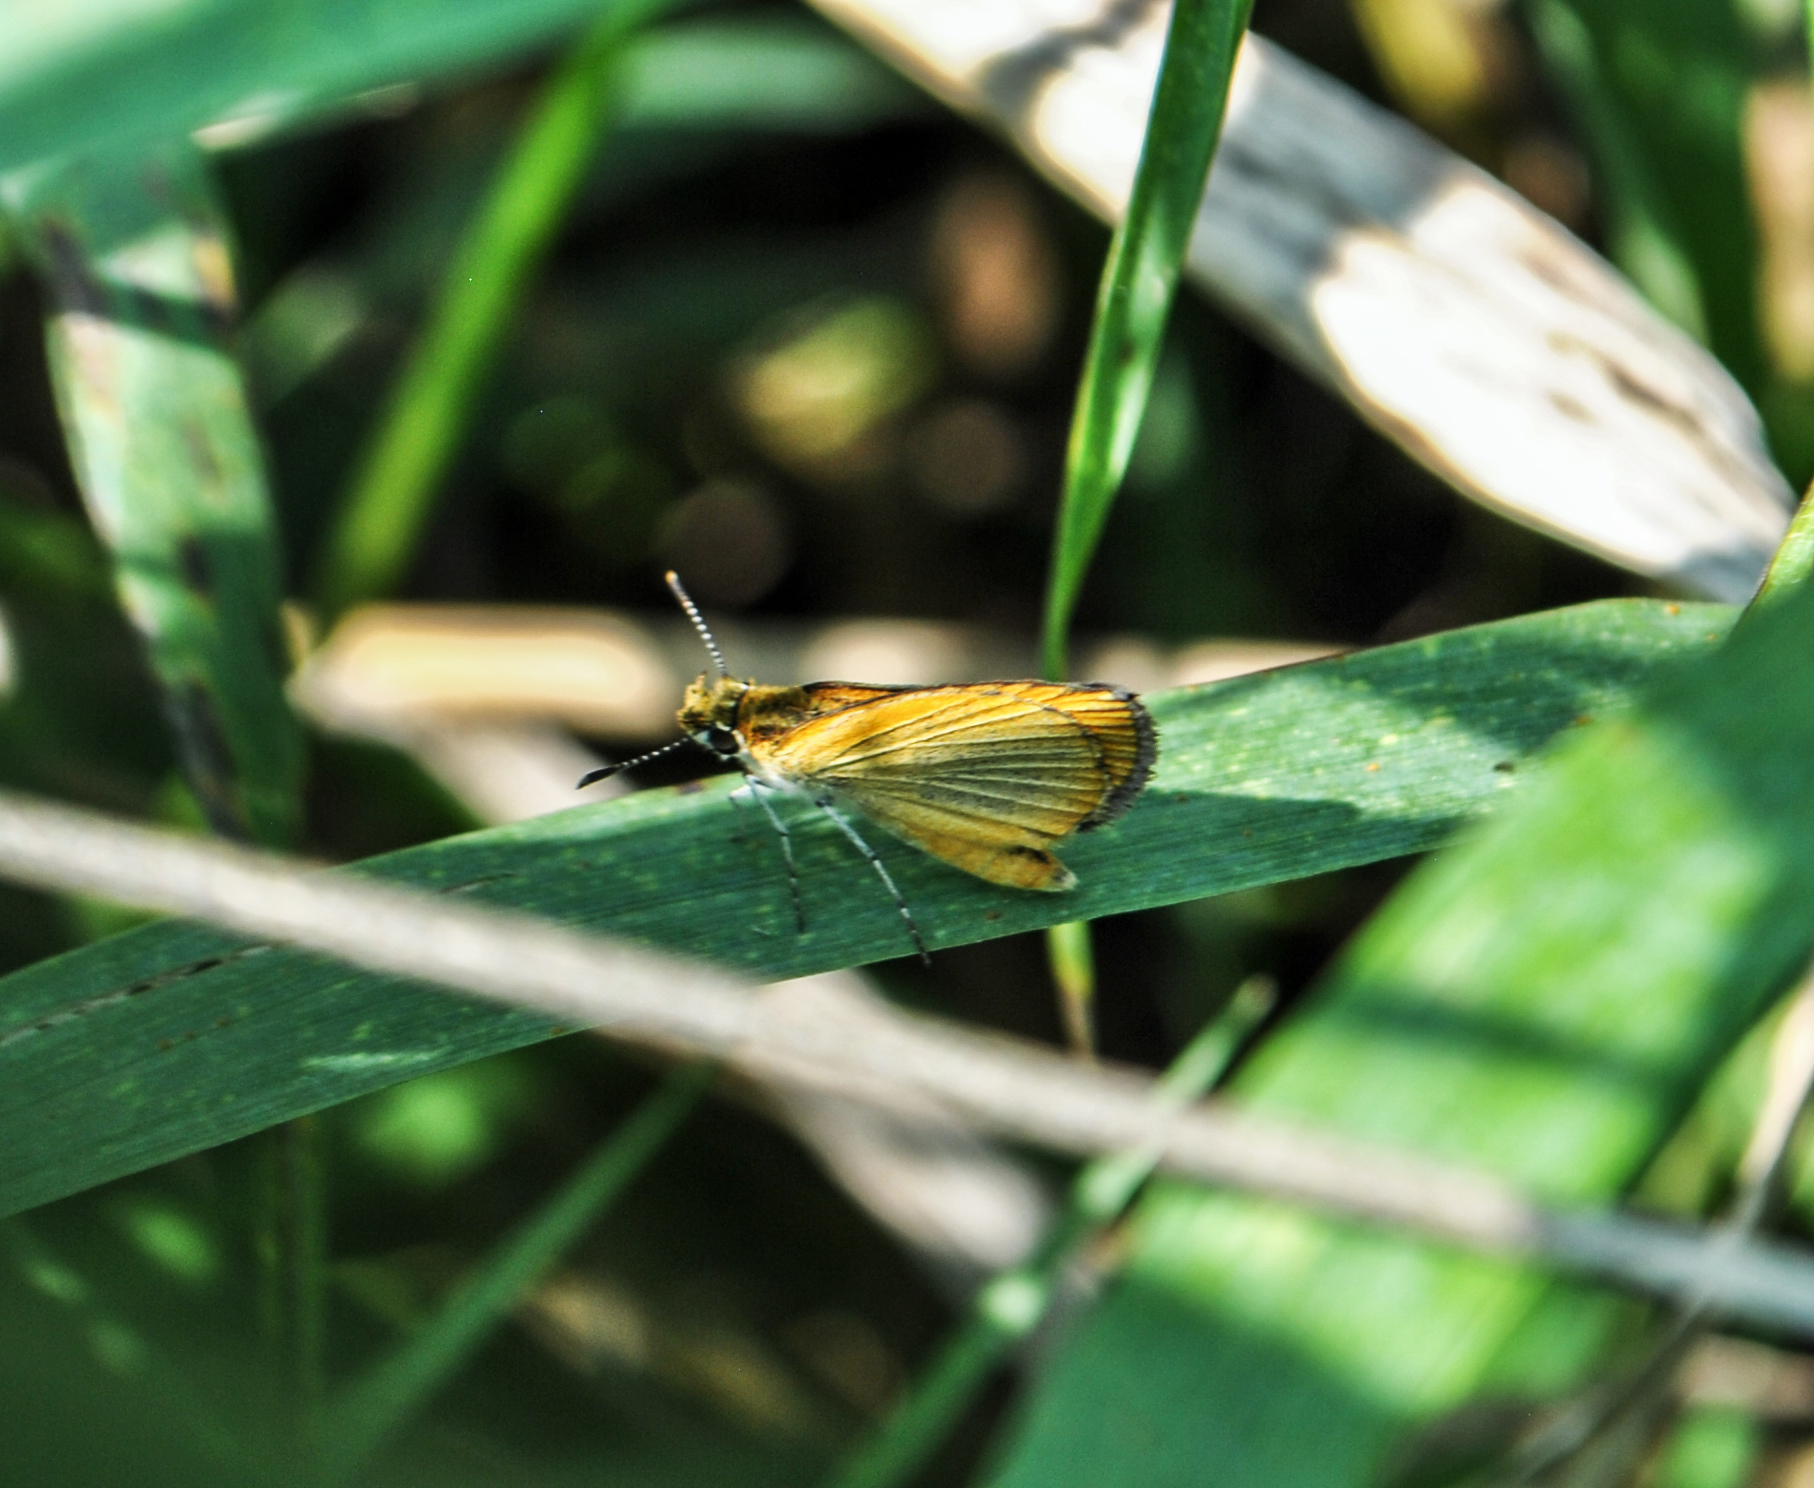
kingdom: Animalia
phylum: Arthropoda
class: Insecta
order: Lepidoptera
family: Hesperiidae
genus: Ancyloxypha
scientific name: Ancyloxypha numitor
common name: Least skipper
